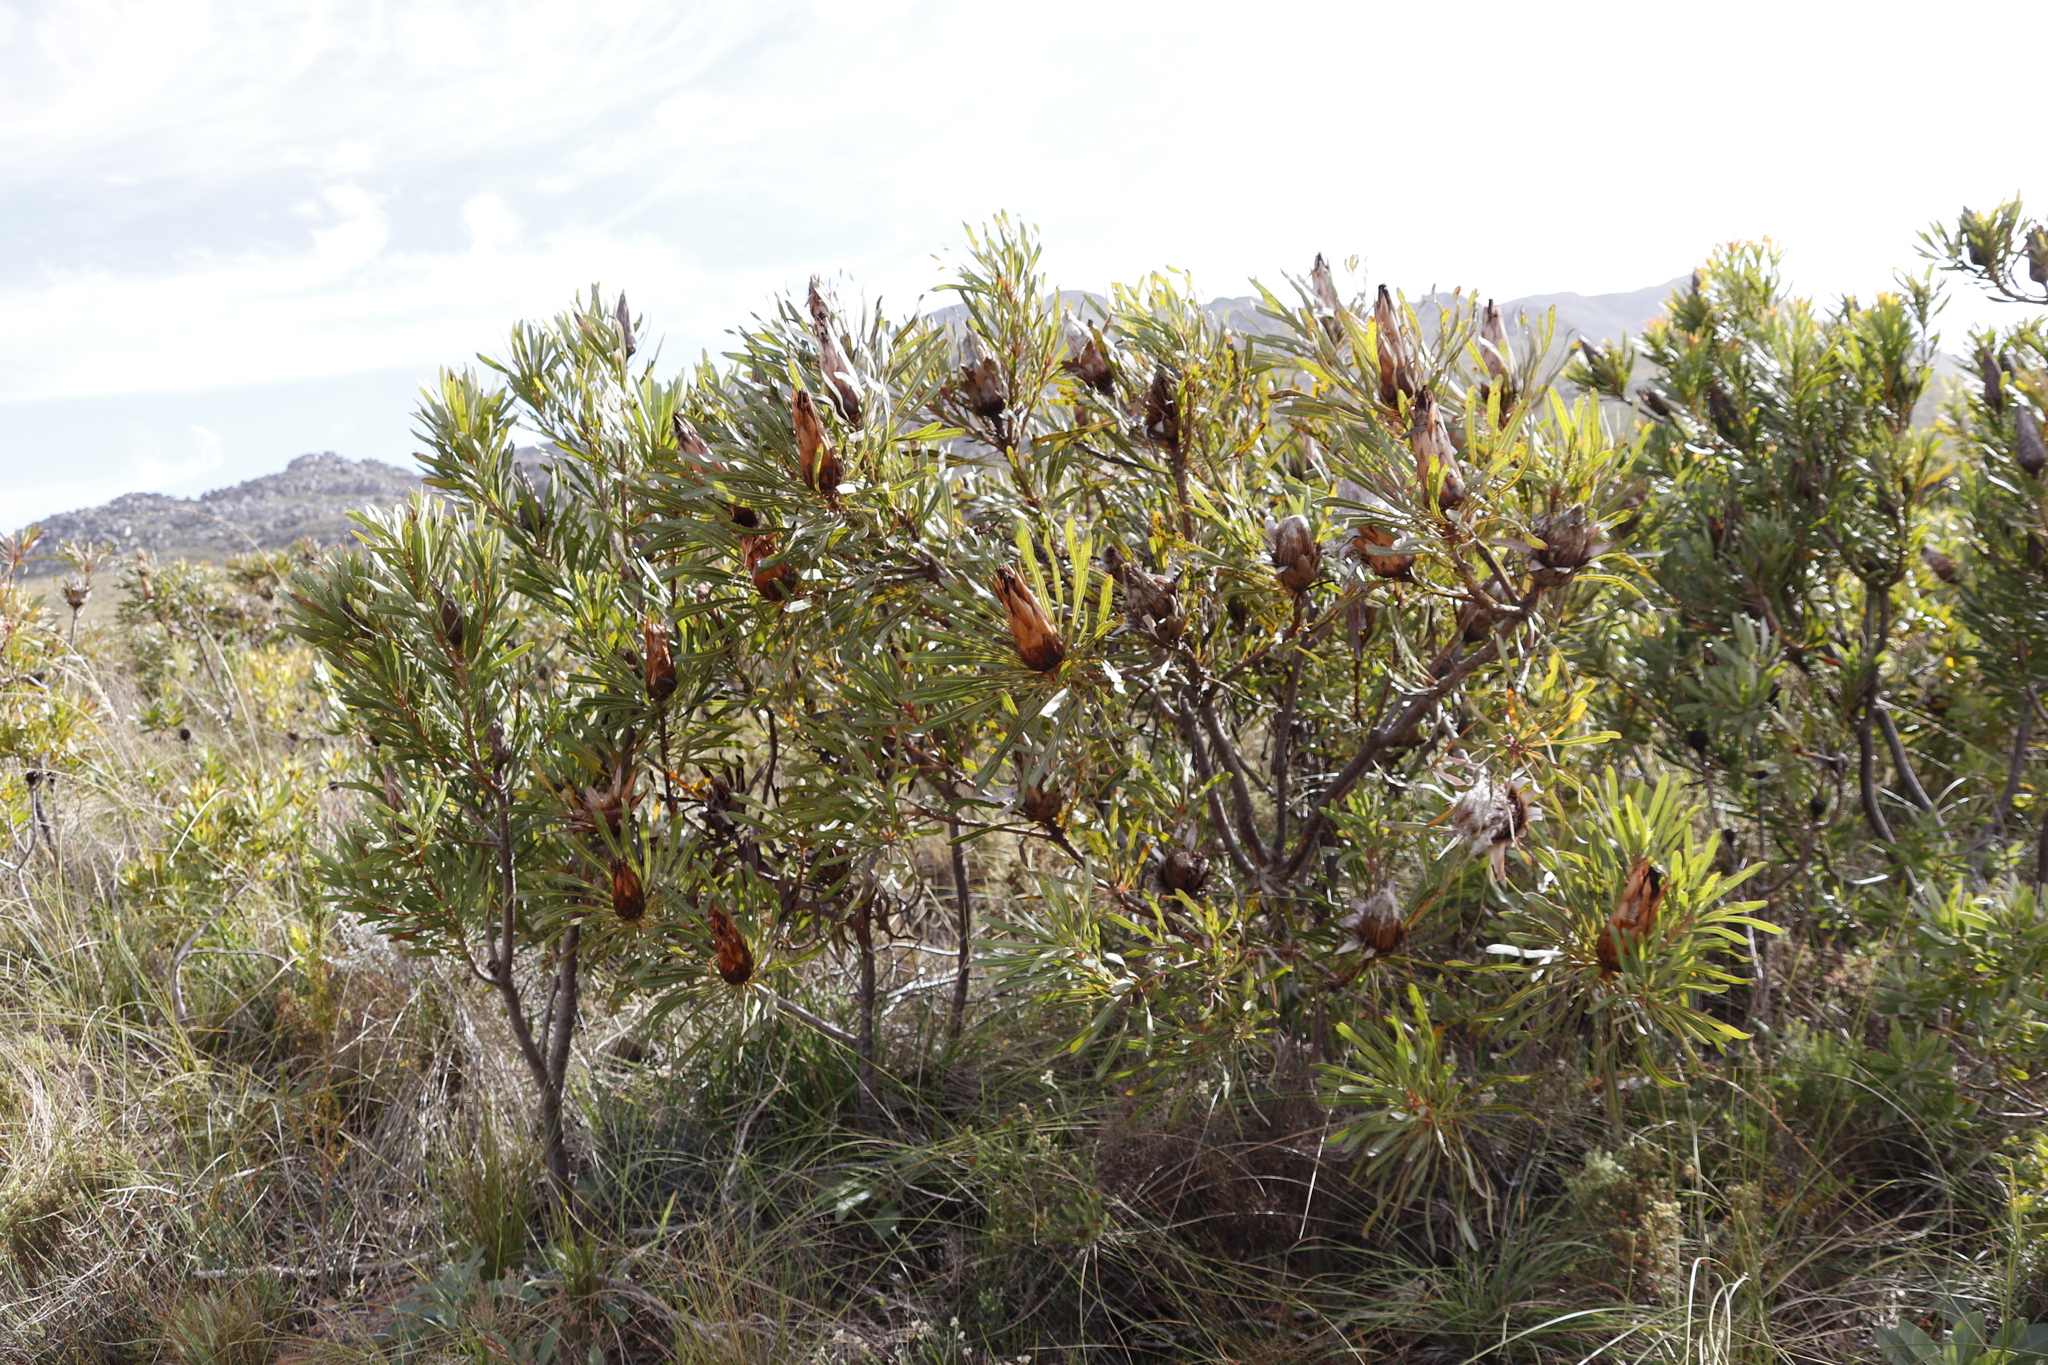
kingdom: Plantae
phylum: Tracheophyta
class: Magnoliopsida
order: Proteales
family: Proteaceae
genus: Protea
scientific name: Protea longifolia
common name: Long-leaf sugarbush
